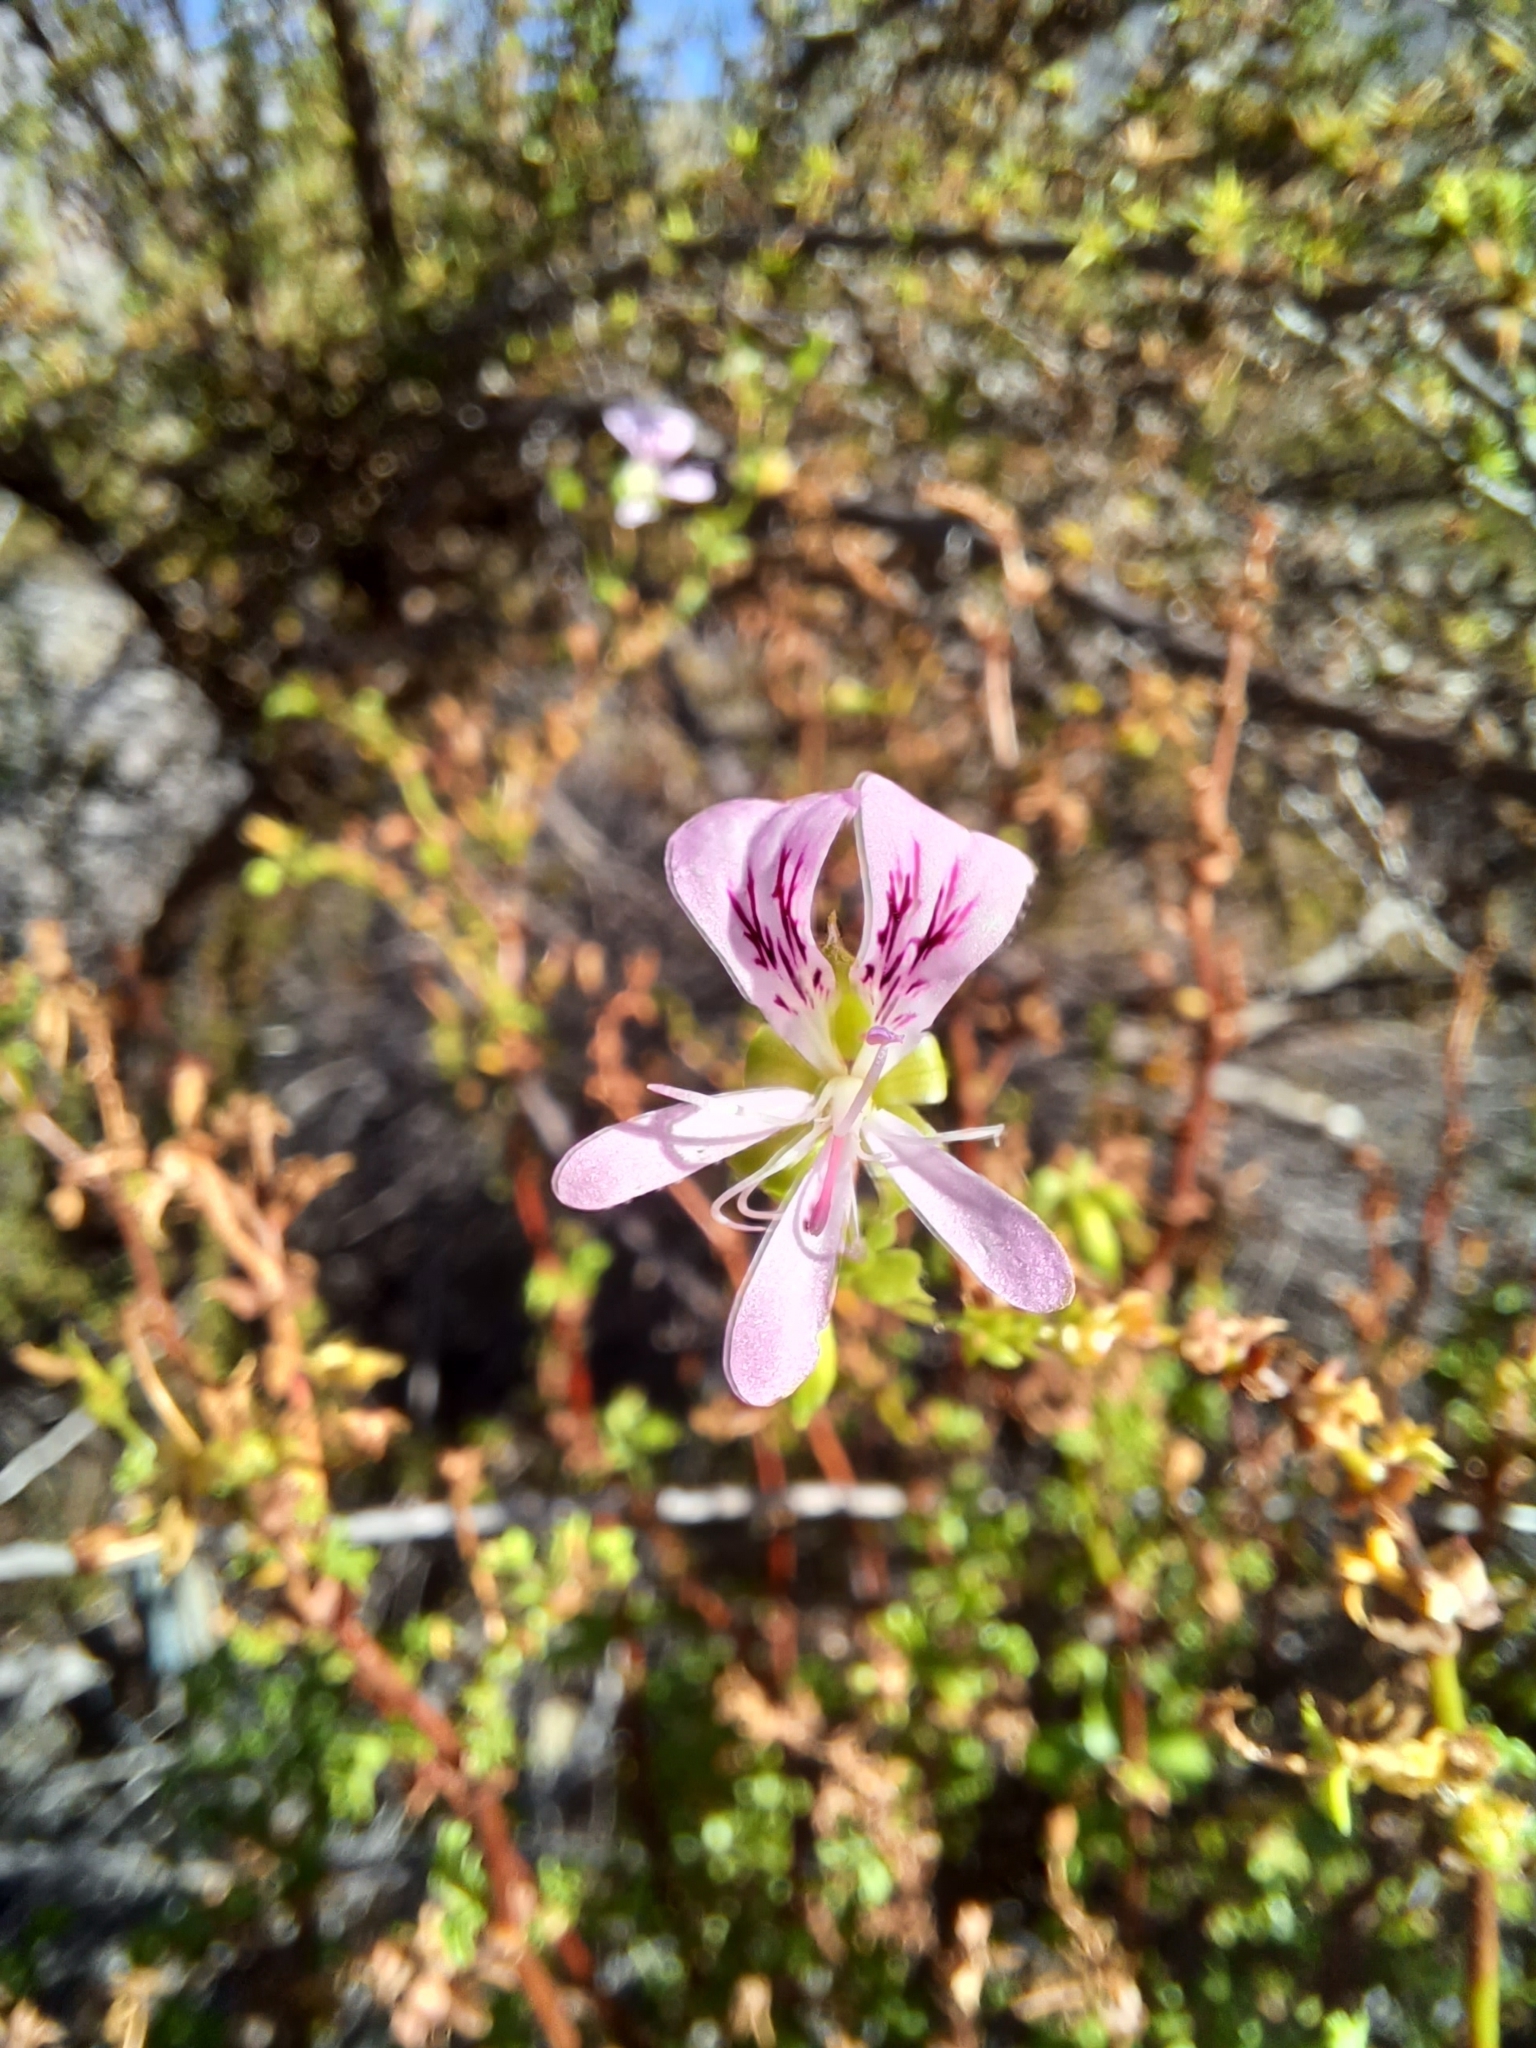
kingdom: Plantae
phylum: Tracheophyta
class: Magnoliopsida
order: Geraniales
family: Geraniaceae
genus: Pelargonium
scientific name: Pelargonium englerianum
